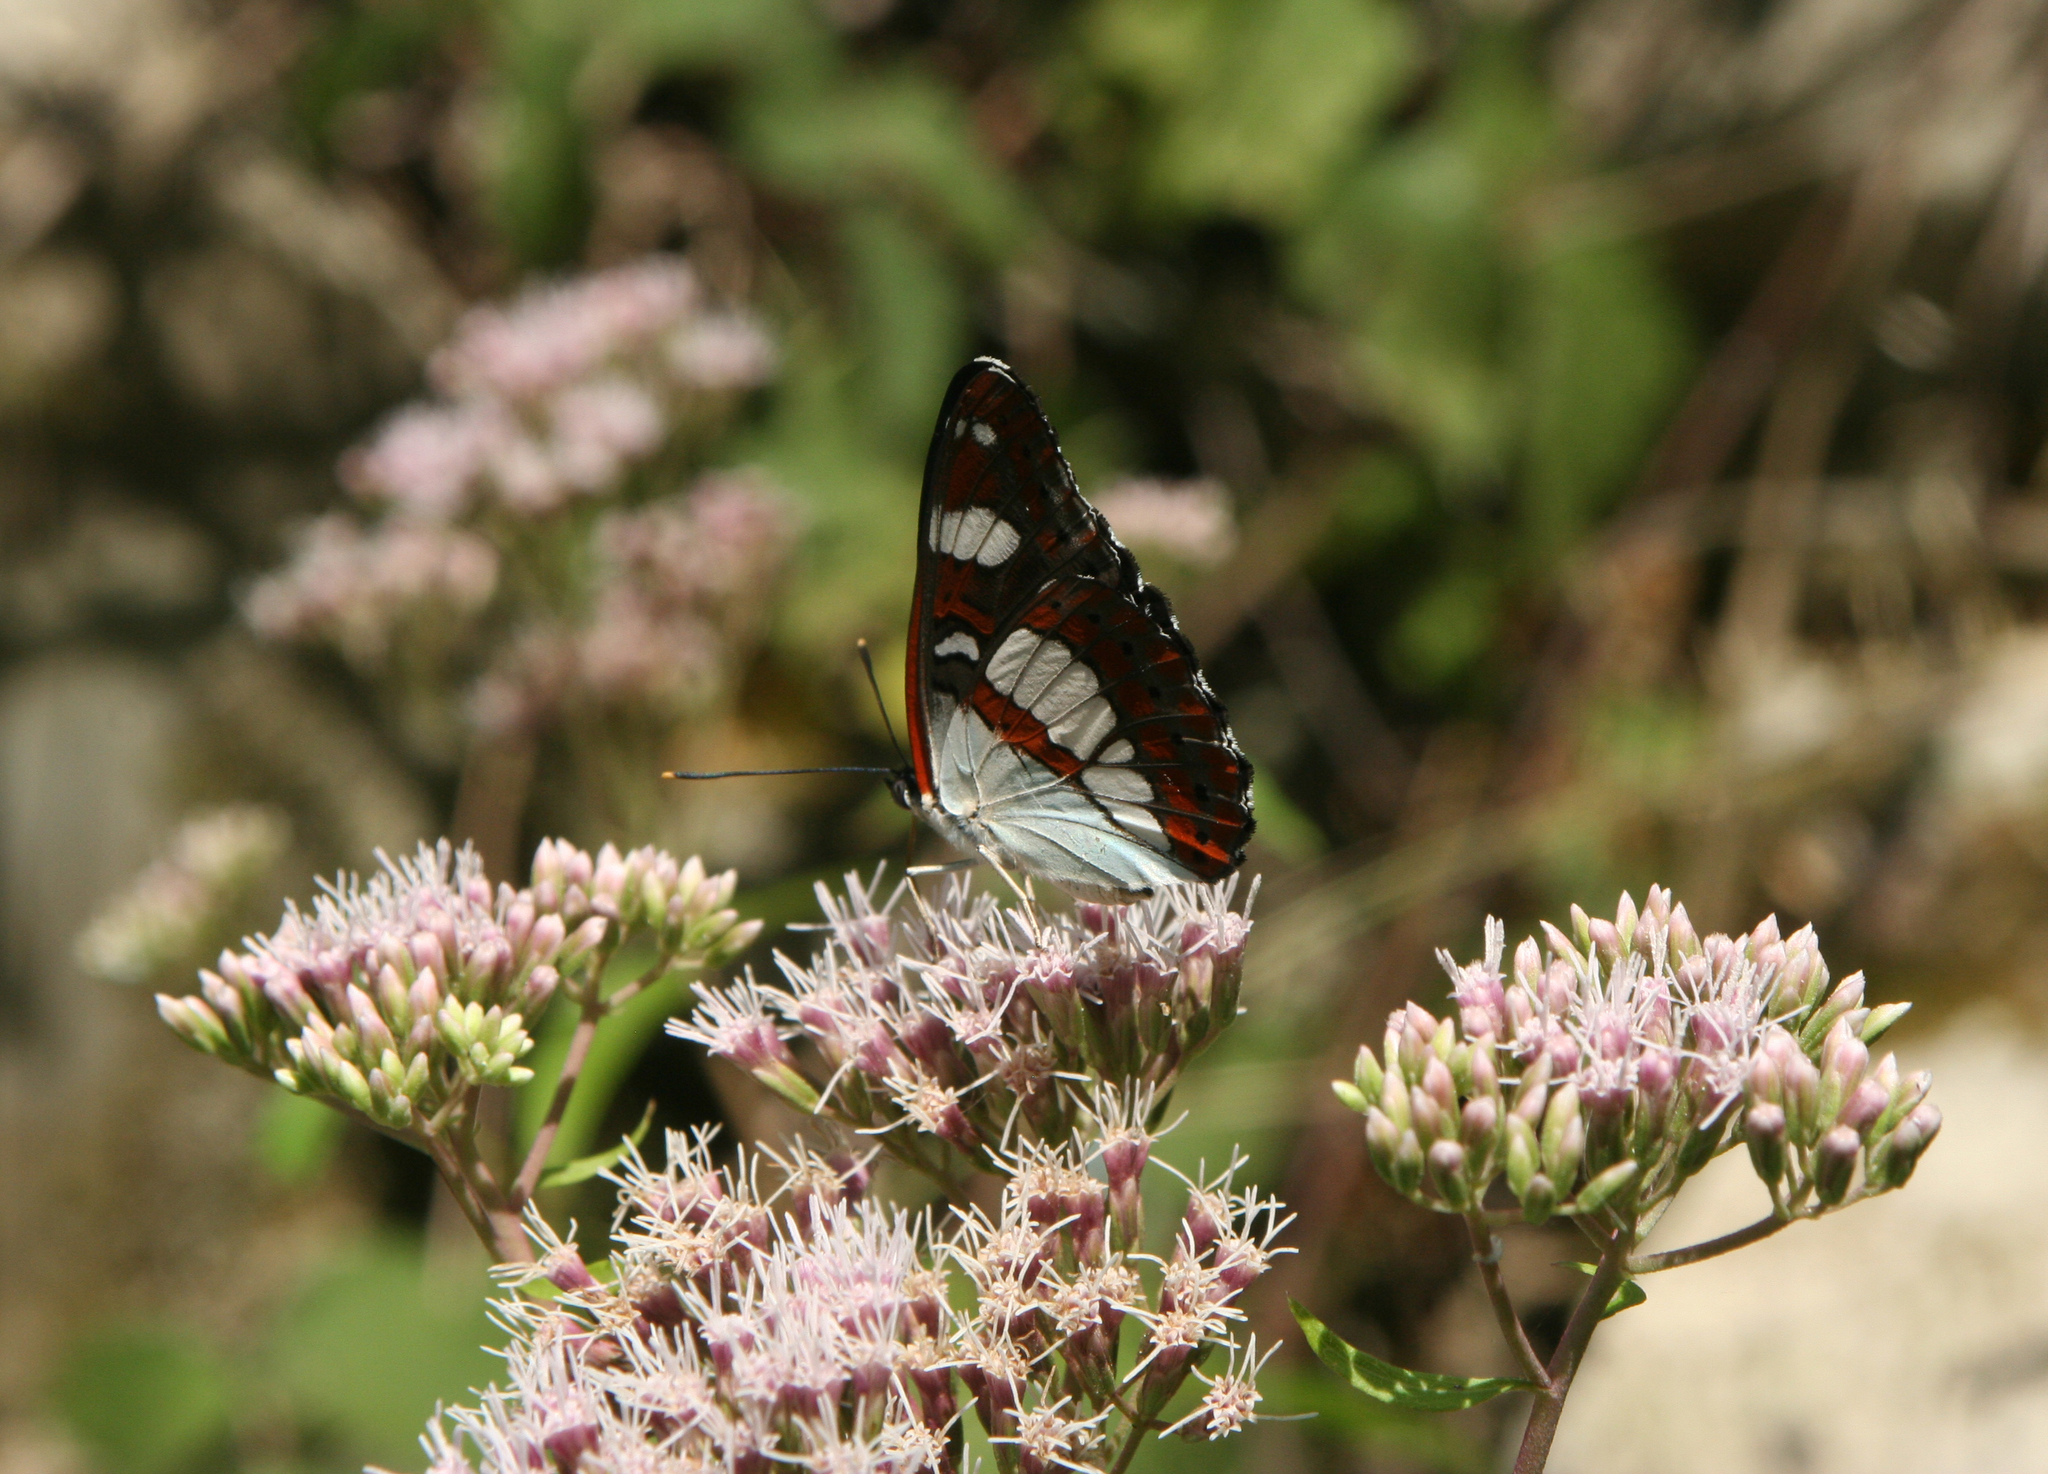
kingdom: Plantae
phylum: Tracheophyta
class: Magnoliopsida
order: Asterales
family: Asteraceae
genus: Eupatorium
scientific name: Eupatorium cannabinum
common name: Hemp-agrimony
